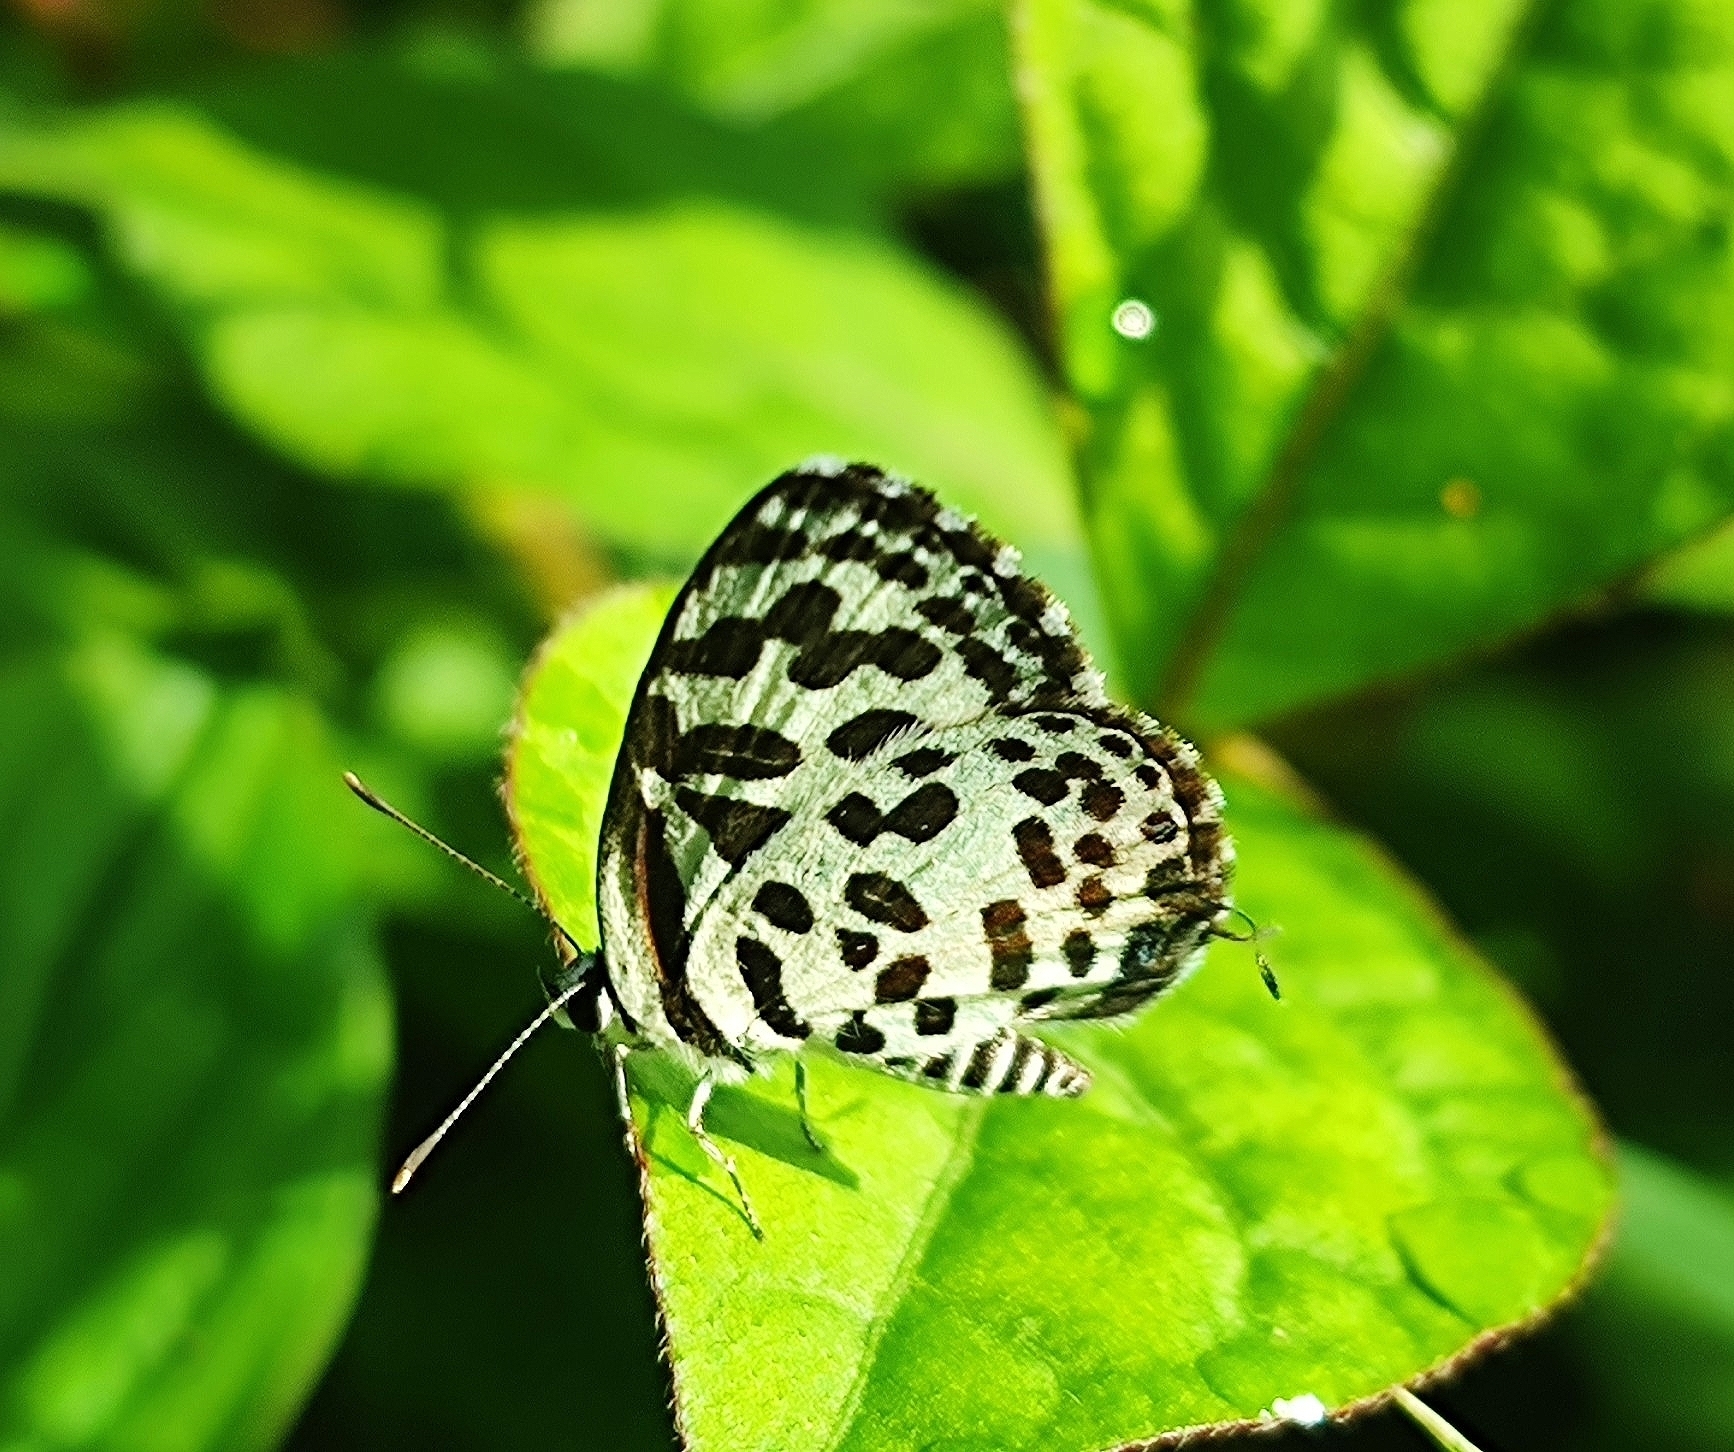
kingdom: Animalia
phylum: Arthropoda
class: Insecta
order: Lepidoptera
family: Lycaenidae
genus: Castalius
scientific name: Castalius rosimon
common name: Common pierrot
